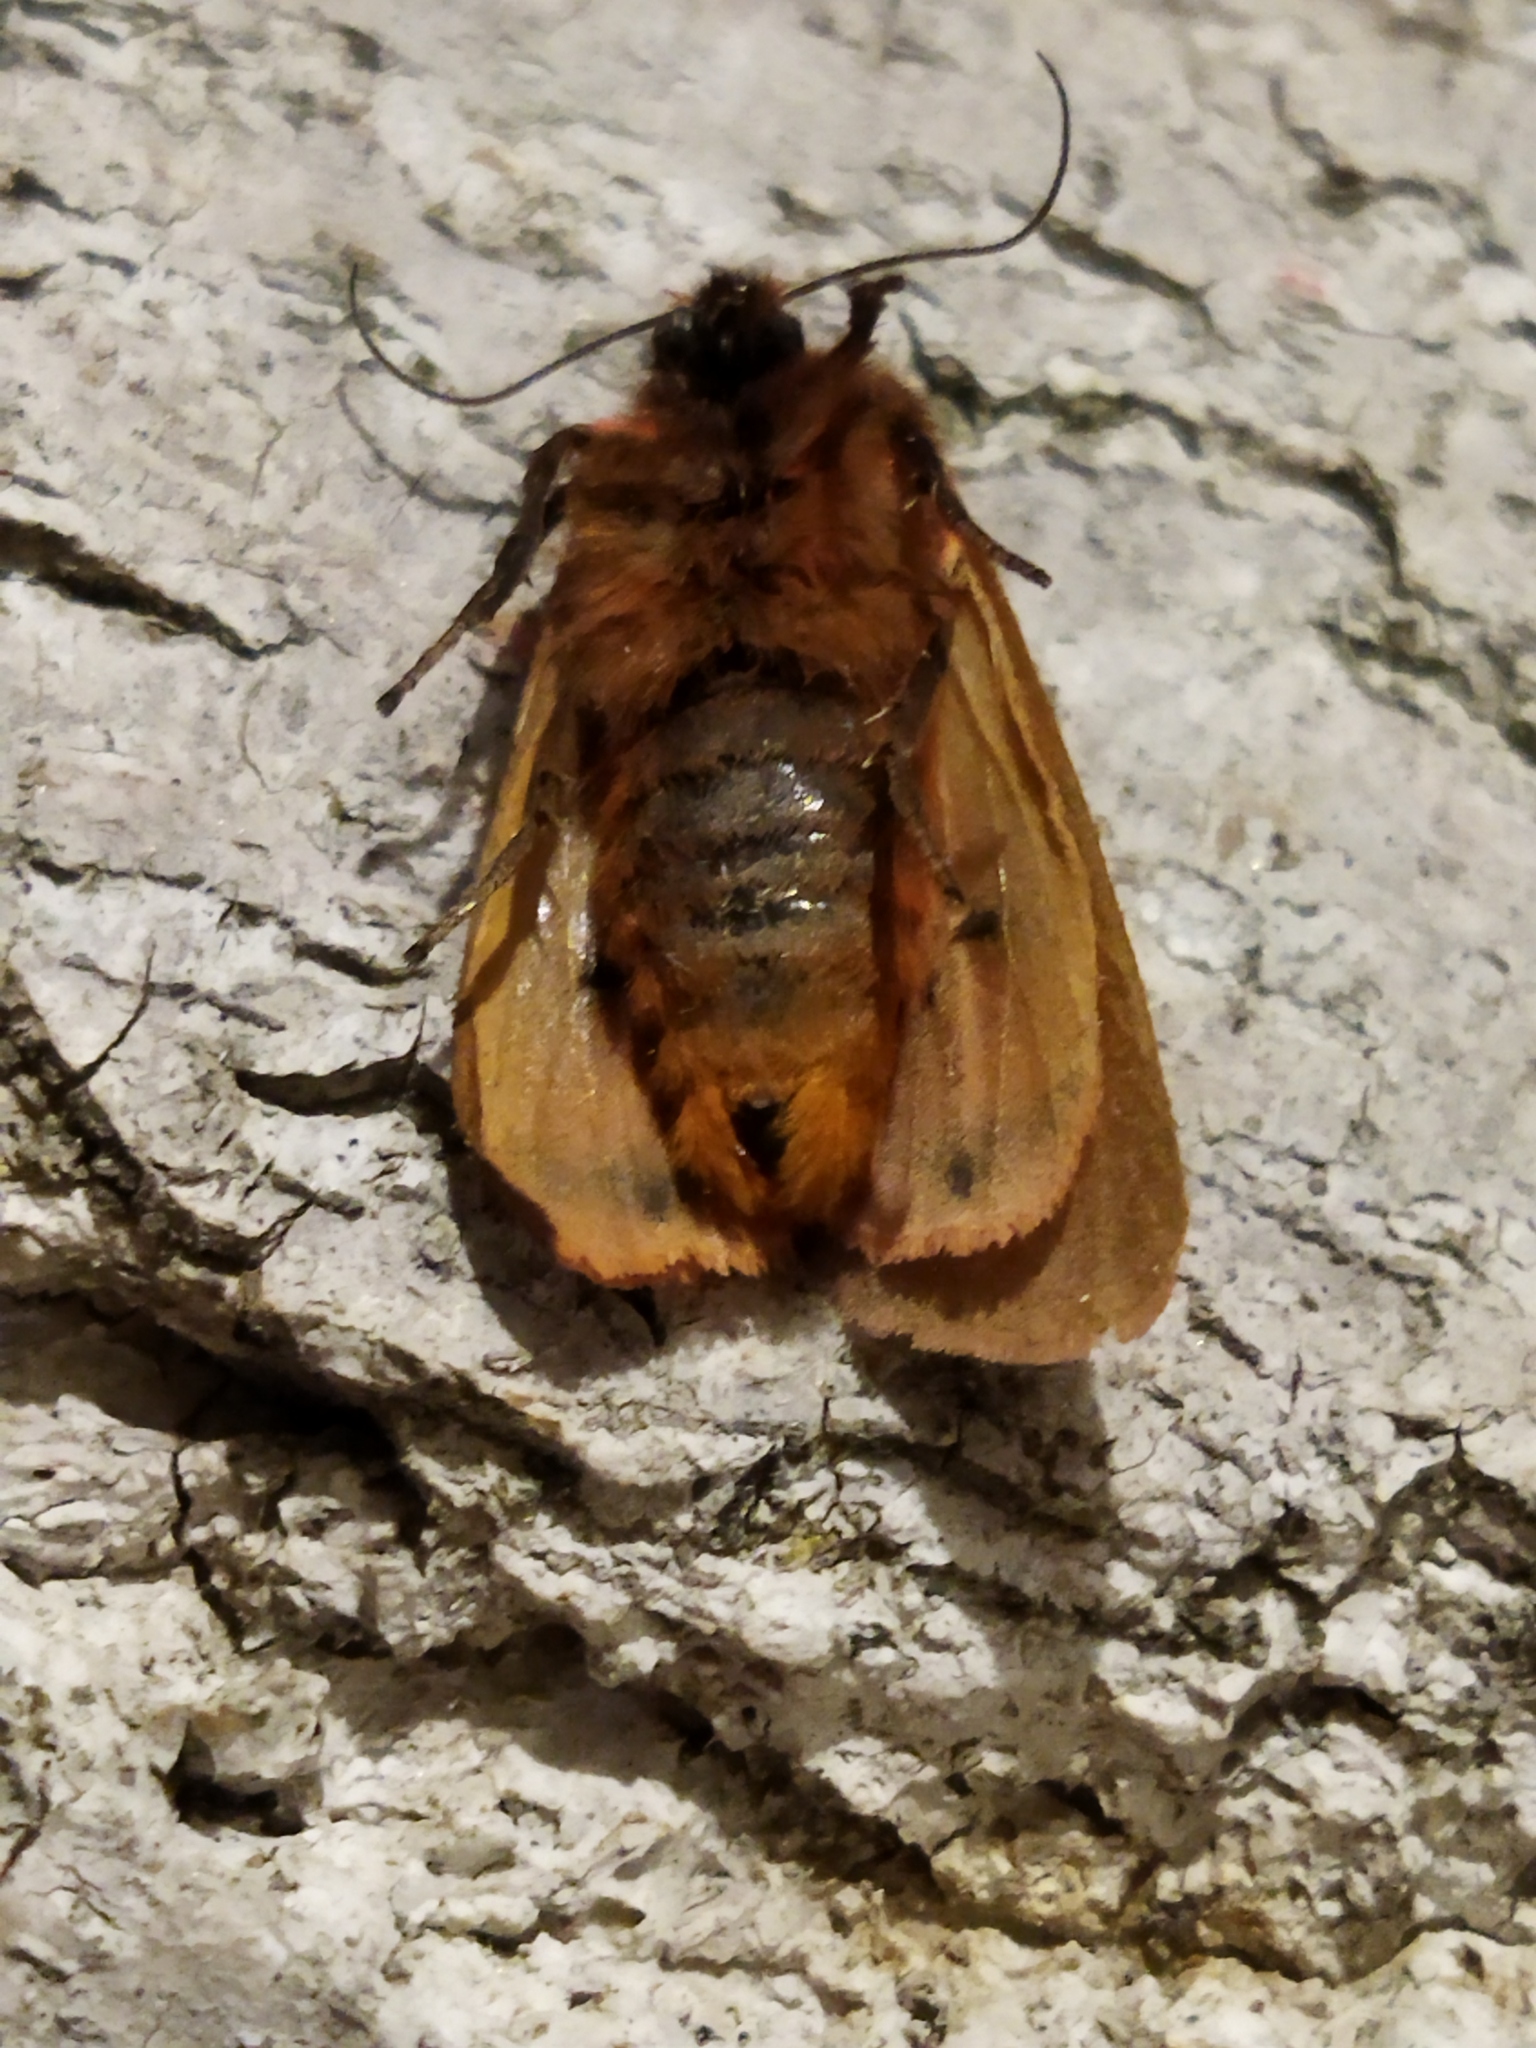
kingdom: Animalia
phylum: Arthropoda
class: Insecta
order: Lepidoptera
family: Erebidae
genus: Phragmatobia
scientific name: Phragmatobia fuliginosa
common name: Ruby tiger
